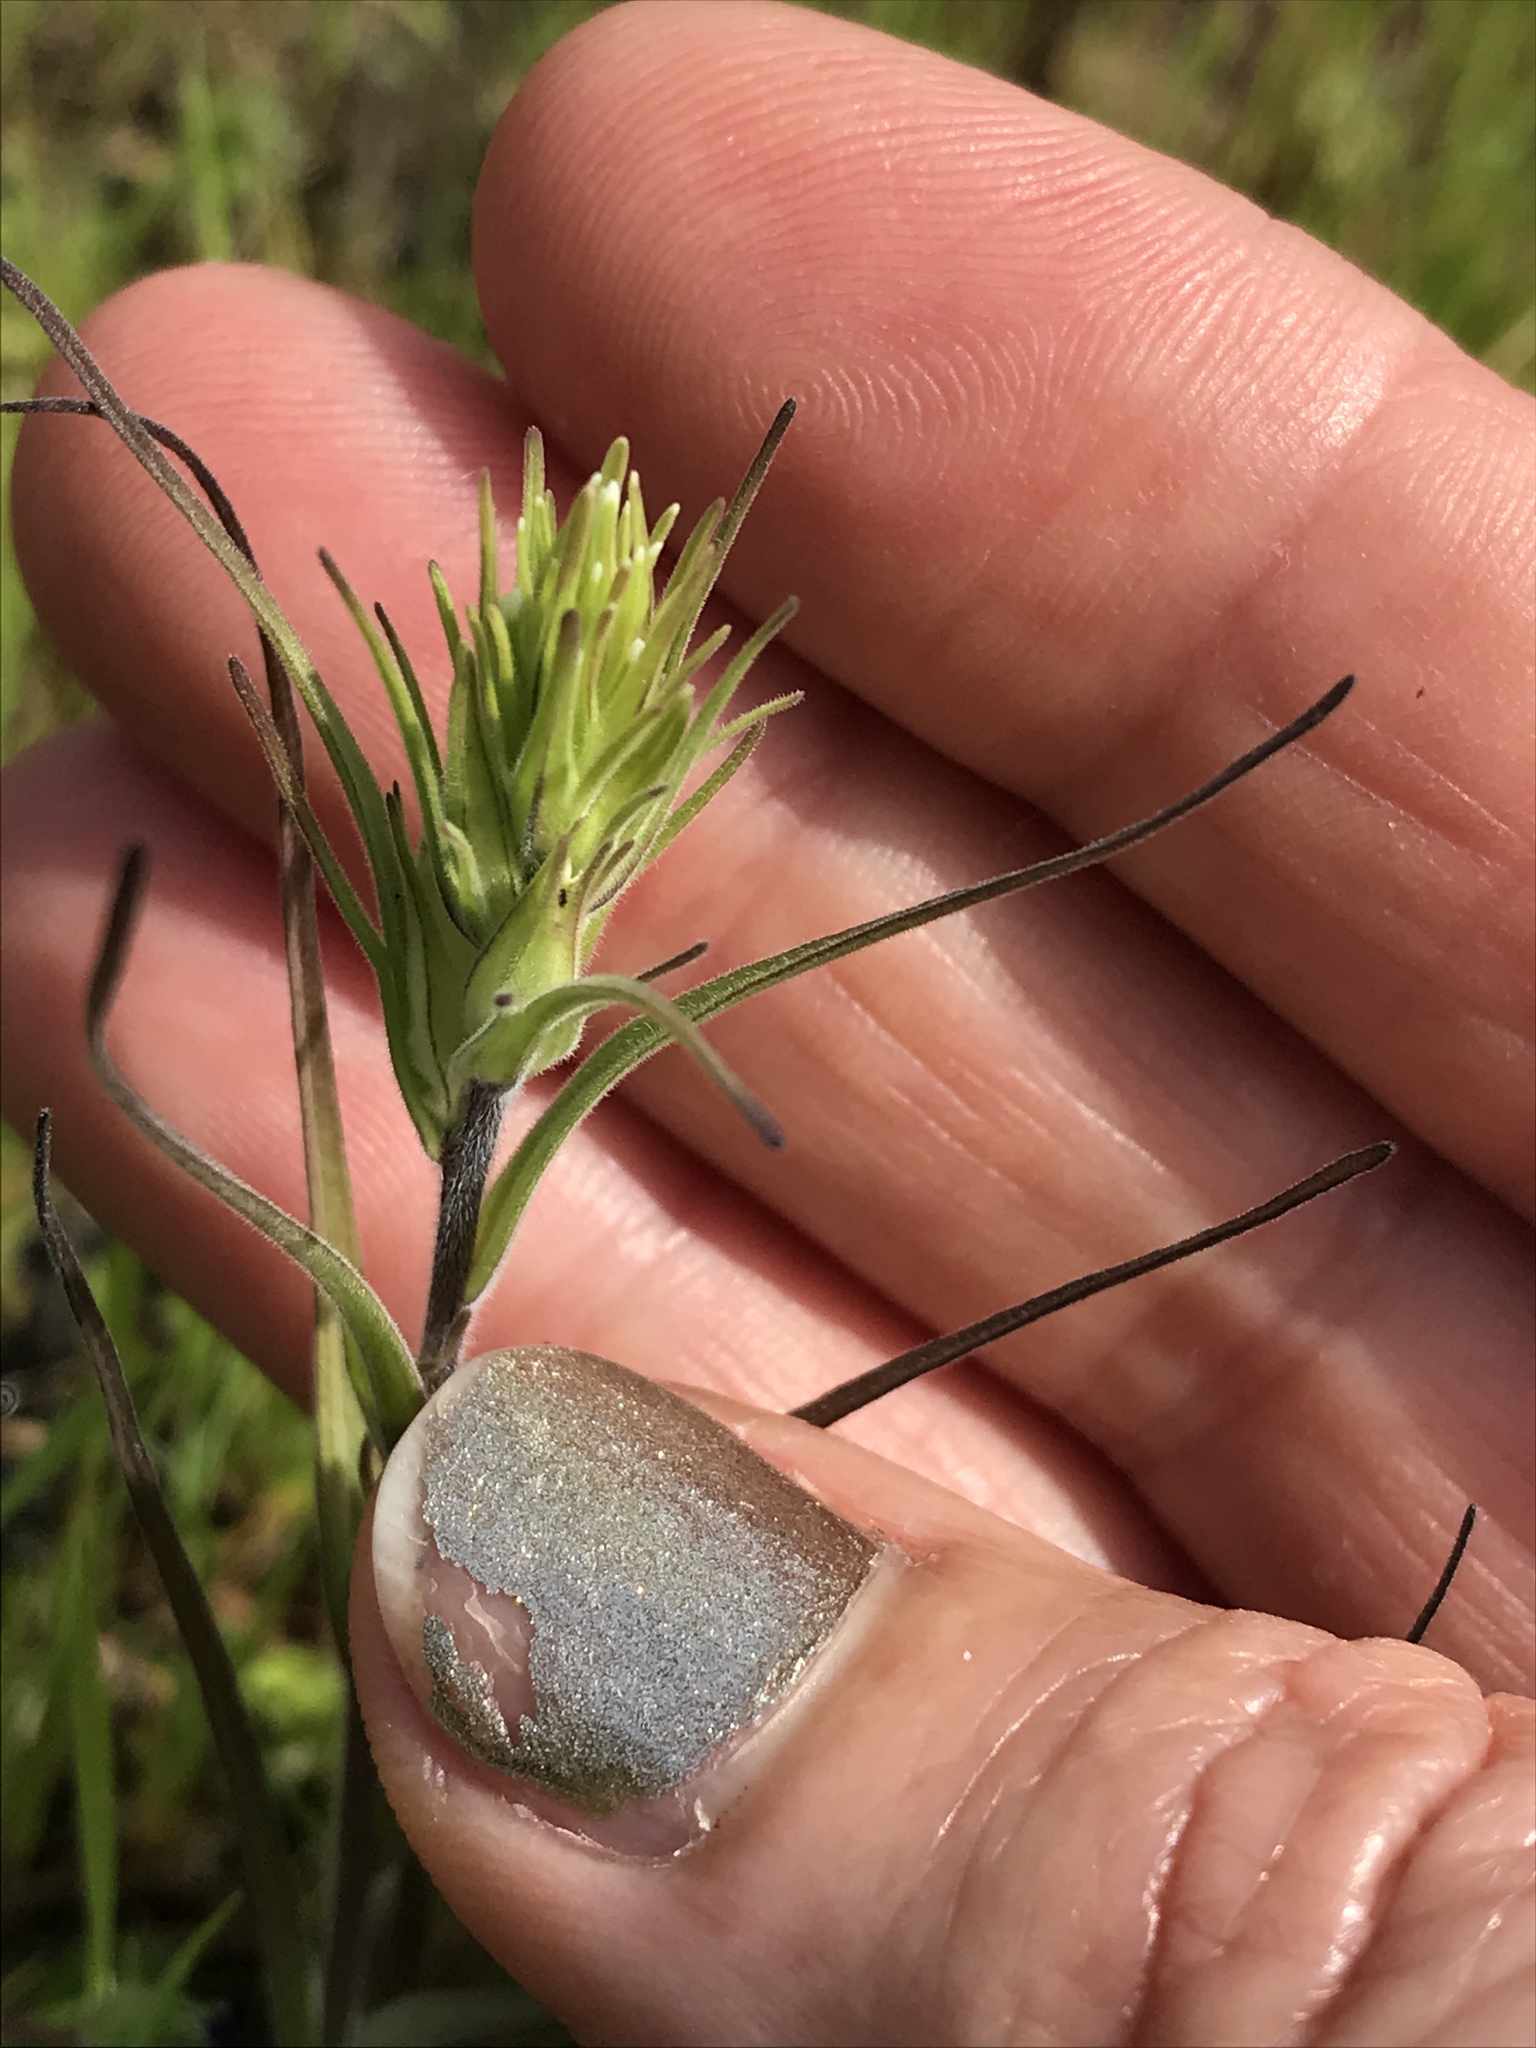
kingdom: Plantae
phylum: Tracheophyta
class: Magnoliopsida
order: Lamiales
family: Orobanchaceae
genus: Castilleja
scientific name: Castilleja attenuata
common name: Valley tassels
